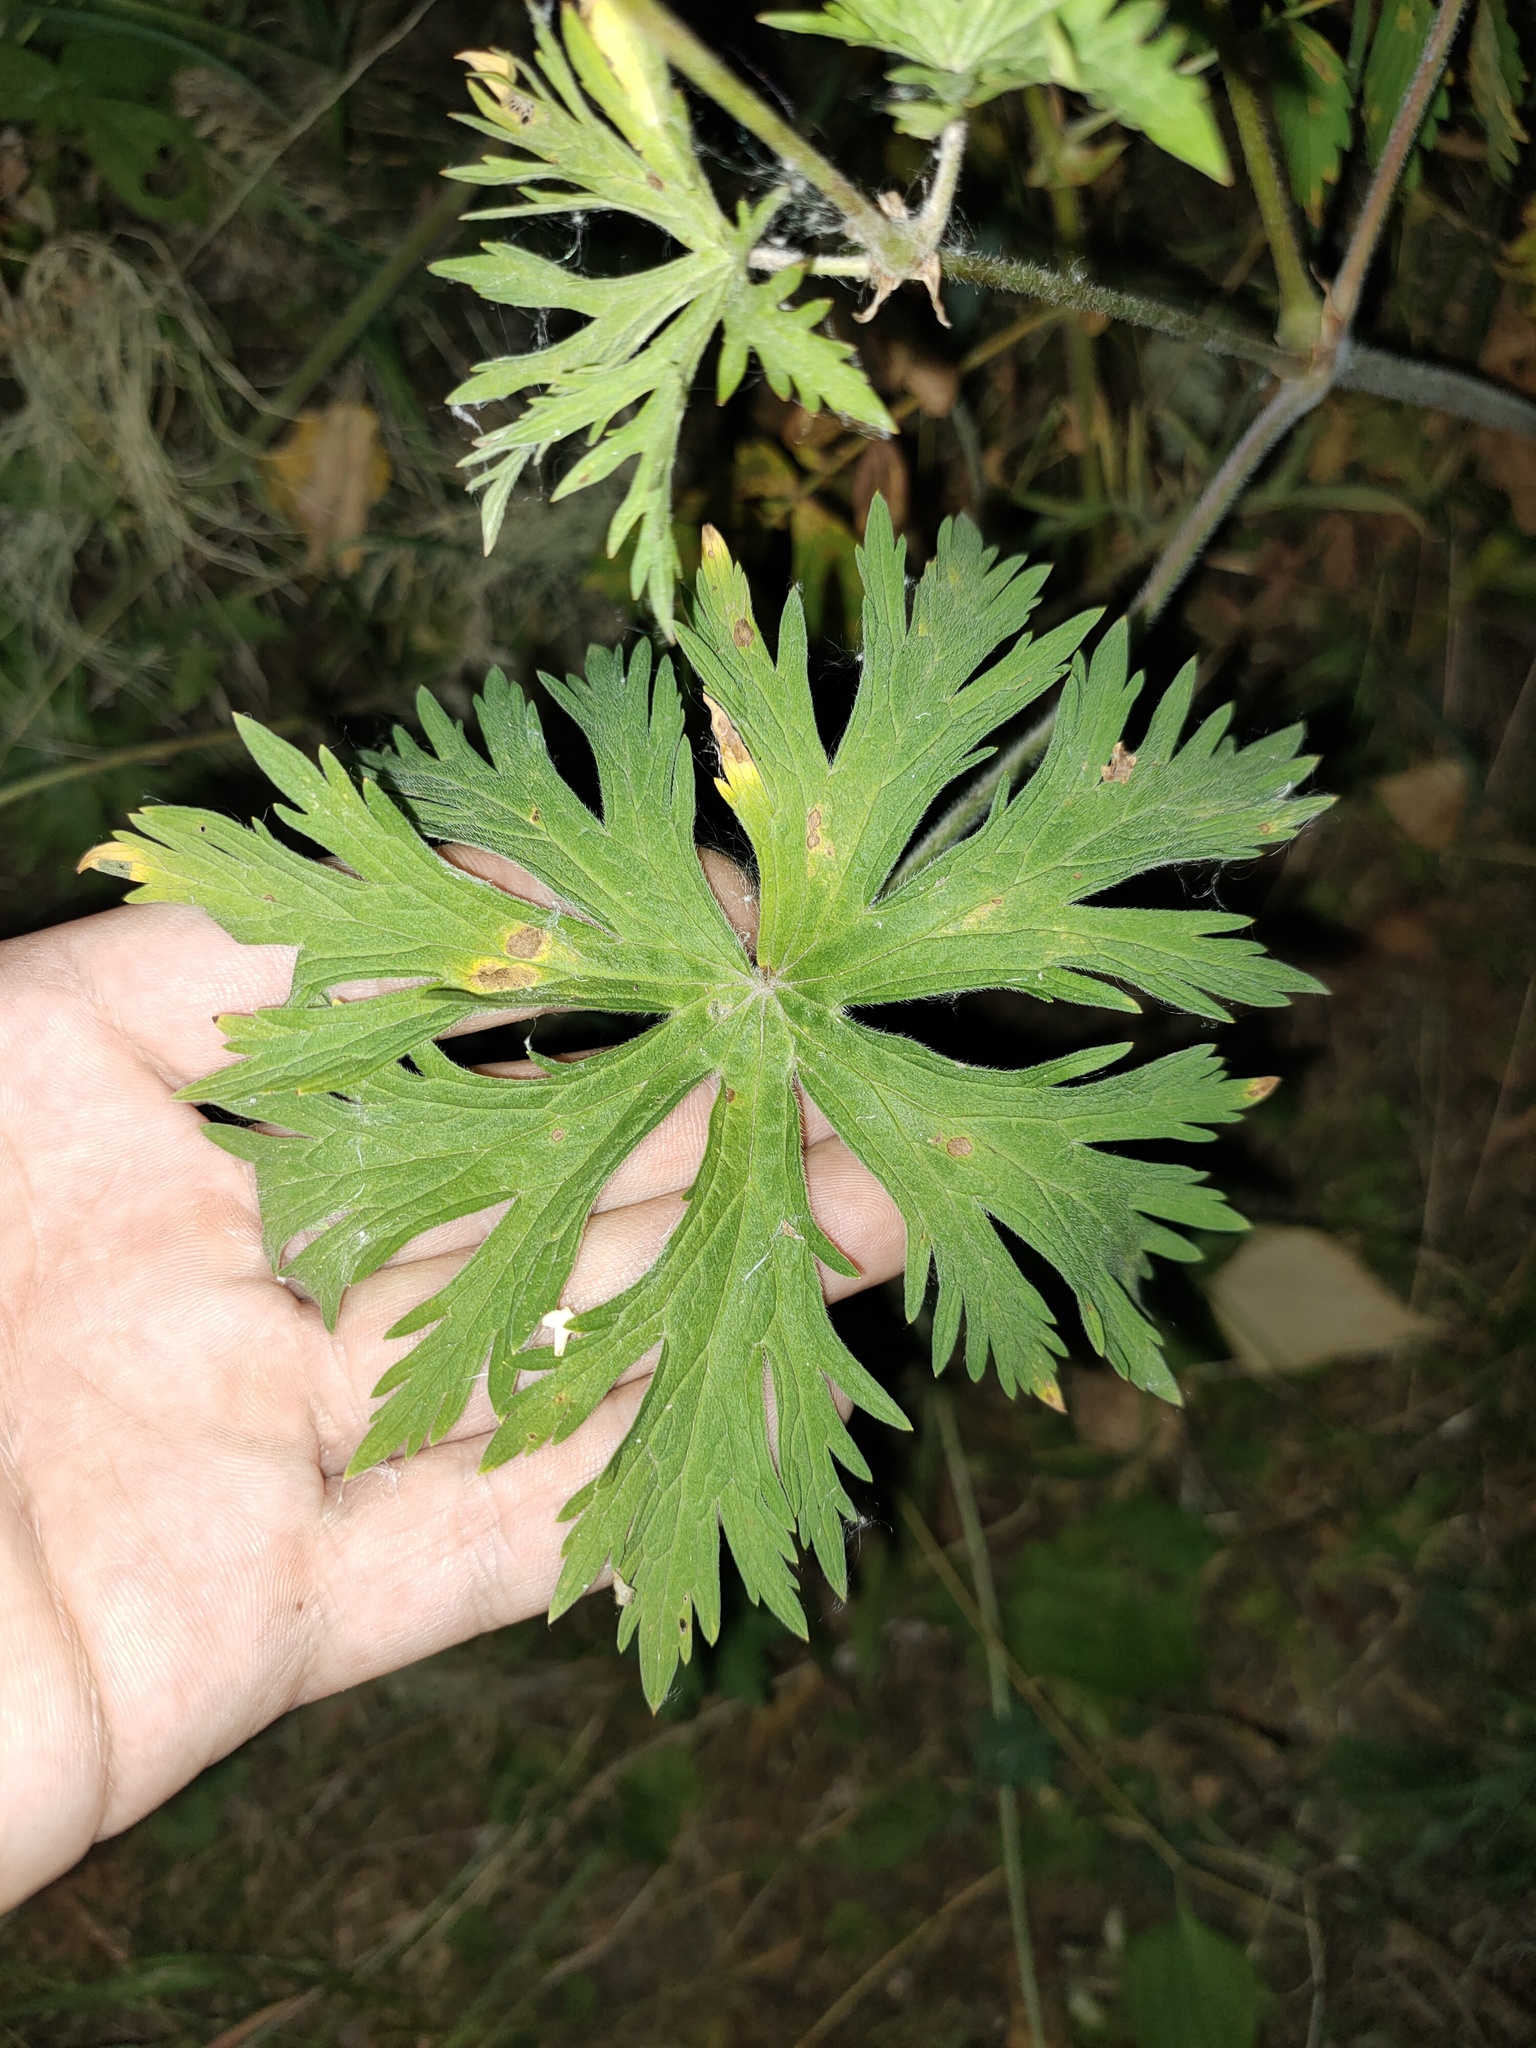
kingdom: Plantae
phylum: Tracheophyta
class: Magnoliopsida
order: Geraniales
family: Geraniaceae
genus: Geranium
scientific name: Geranium pratense
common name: Meadow crane's-bill
